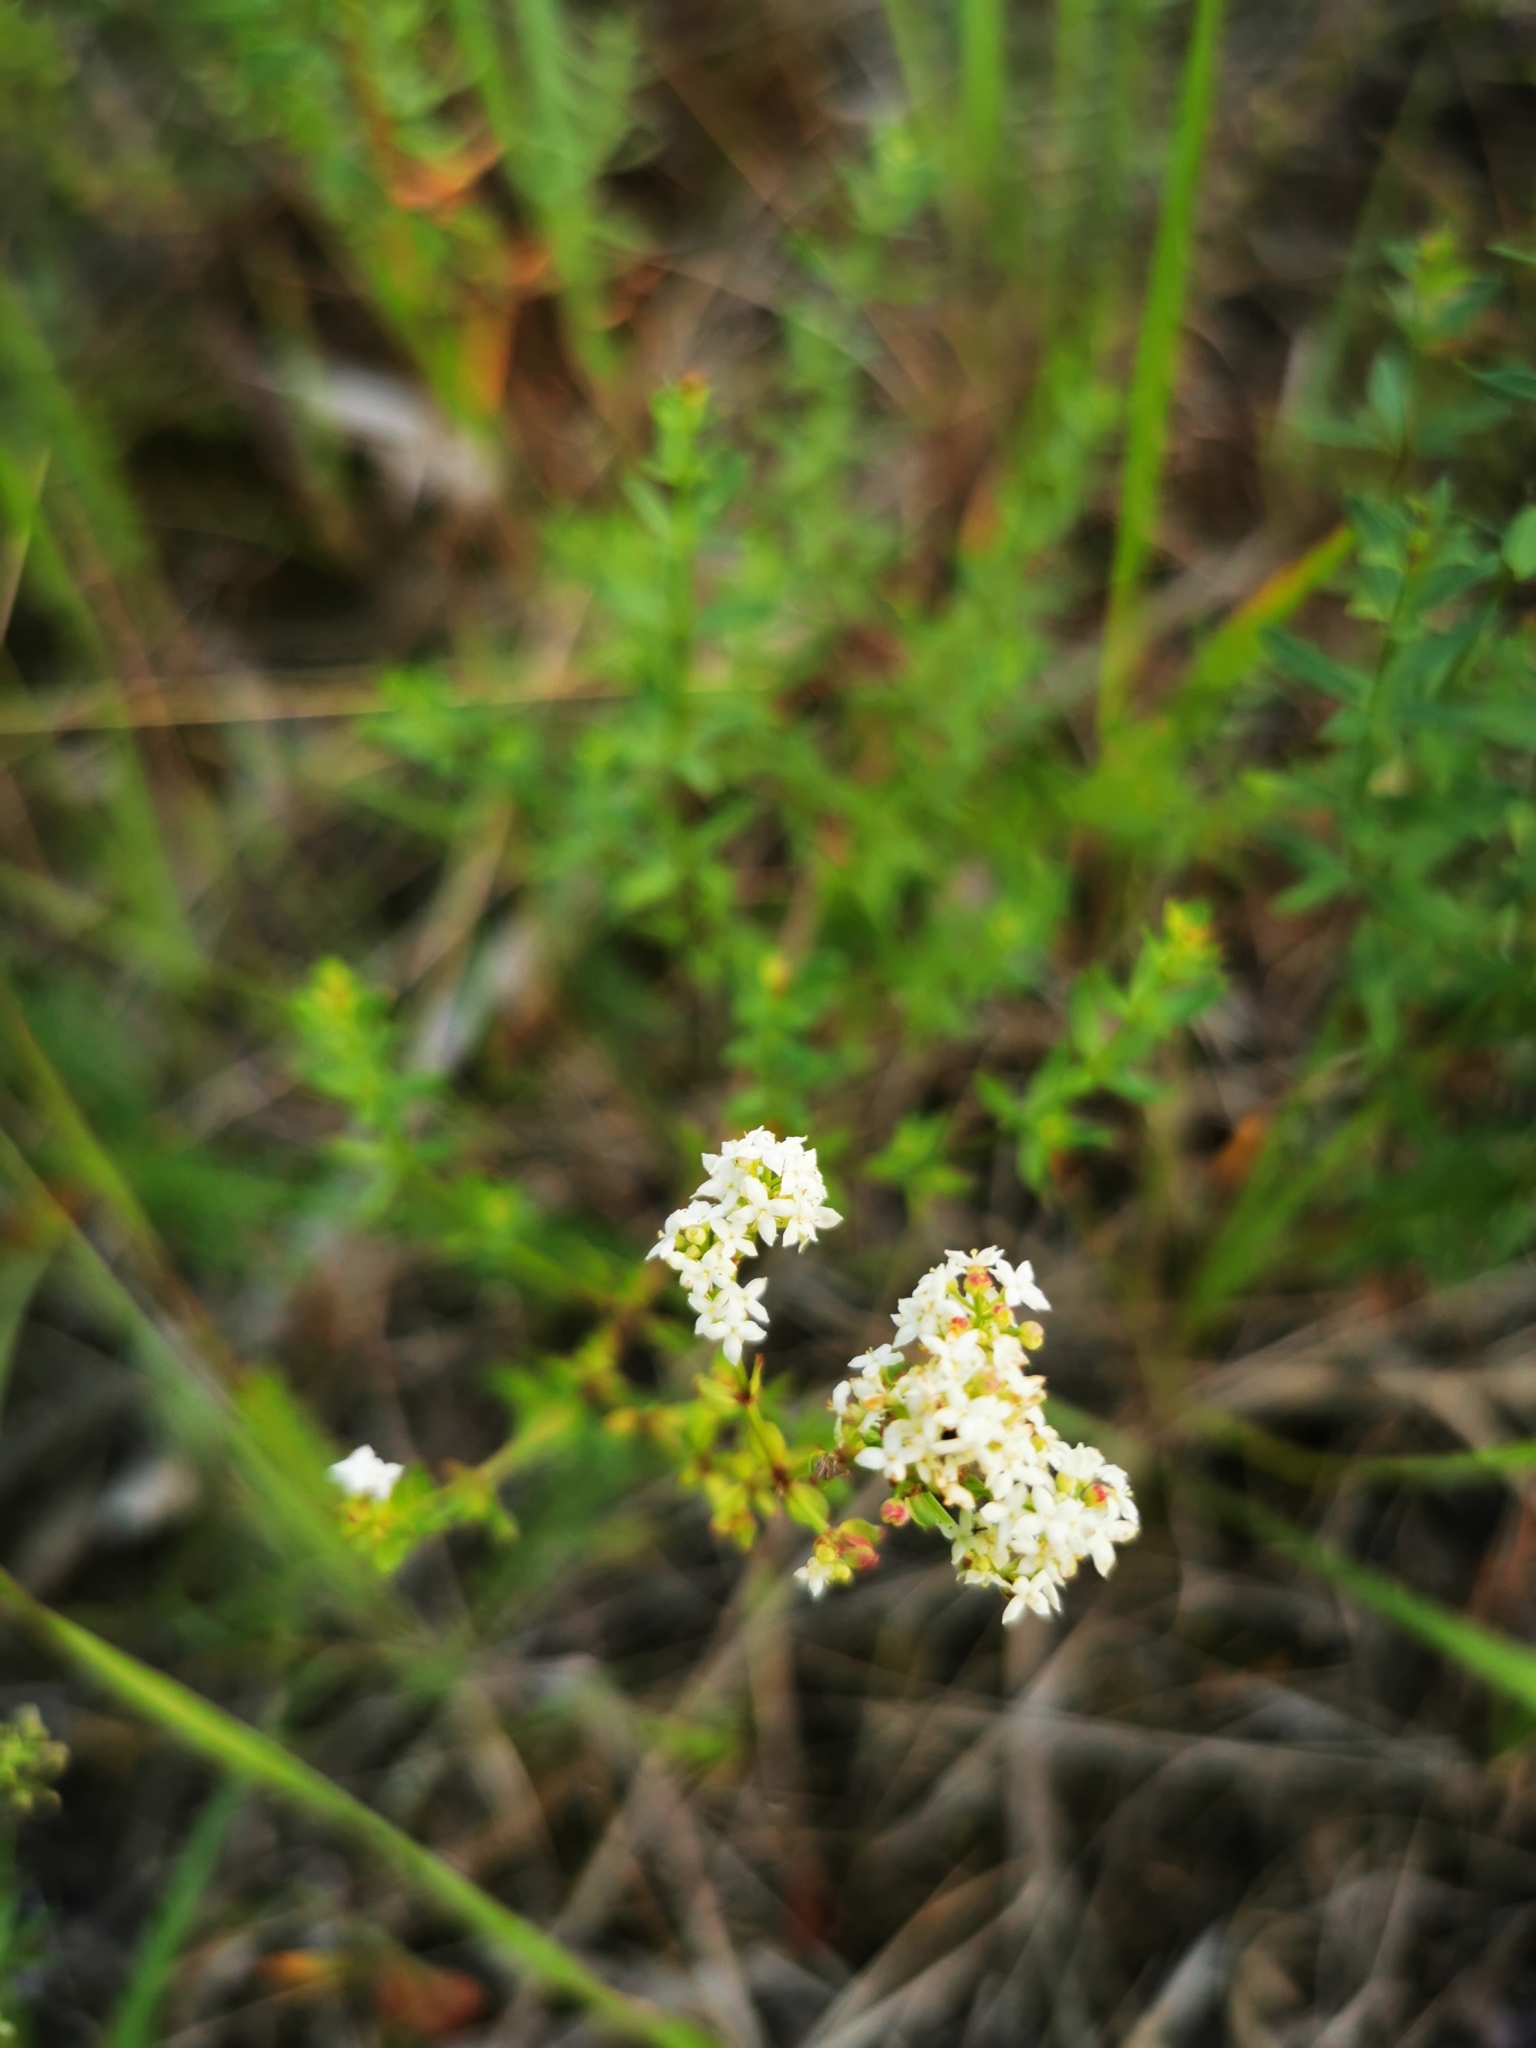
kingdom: Plantae
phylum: Tracheophyta
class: Magnoliopsida
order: Gentianales
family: Rubiaceae
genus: Galium
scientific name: Galium boreale
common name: Northern bedstraw
